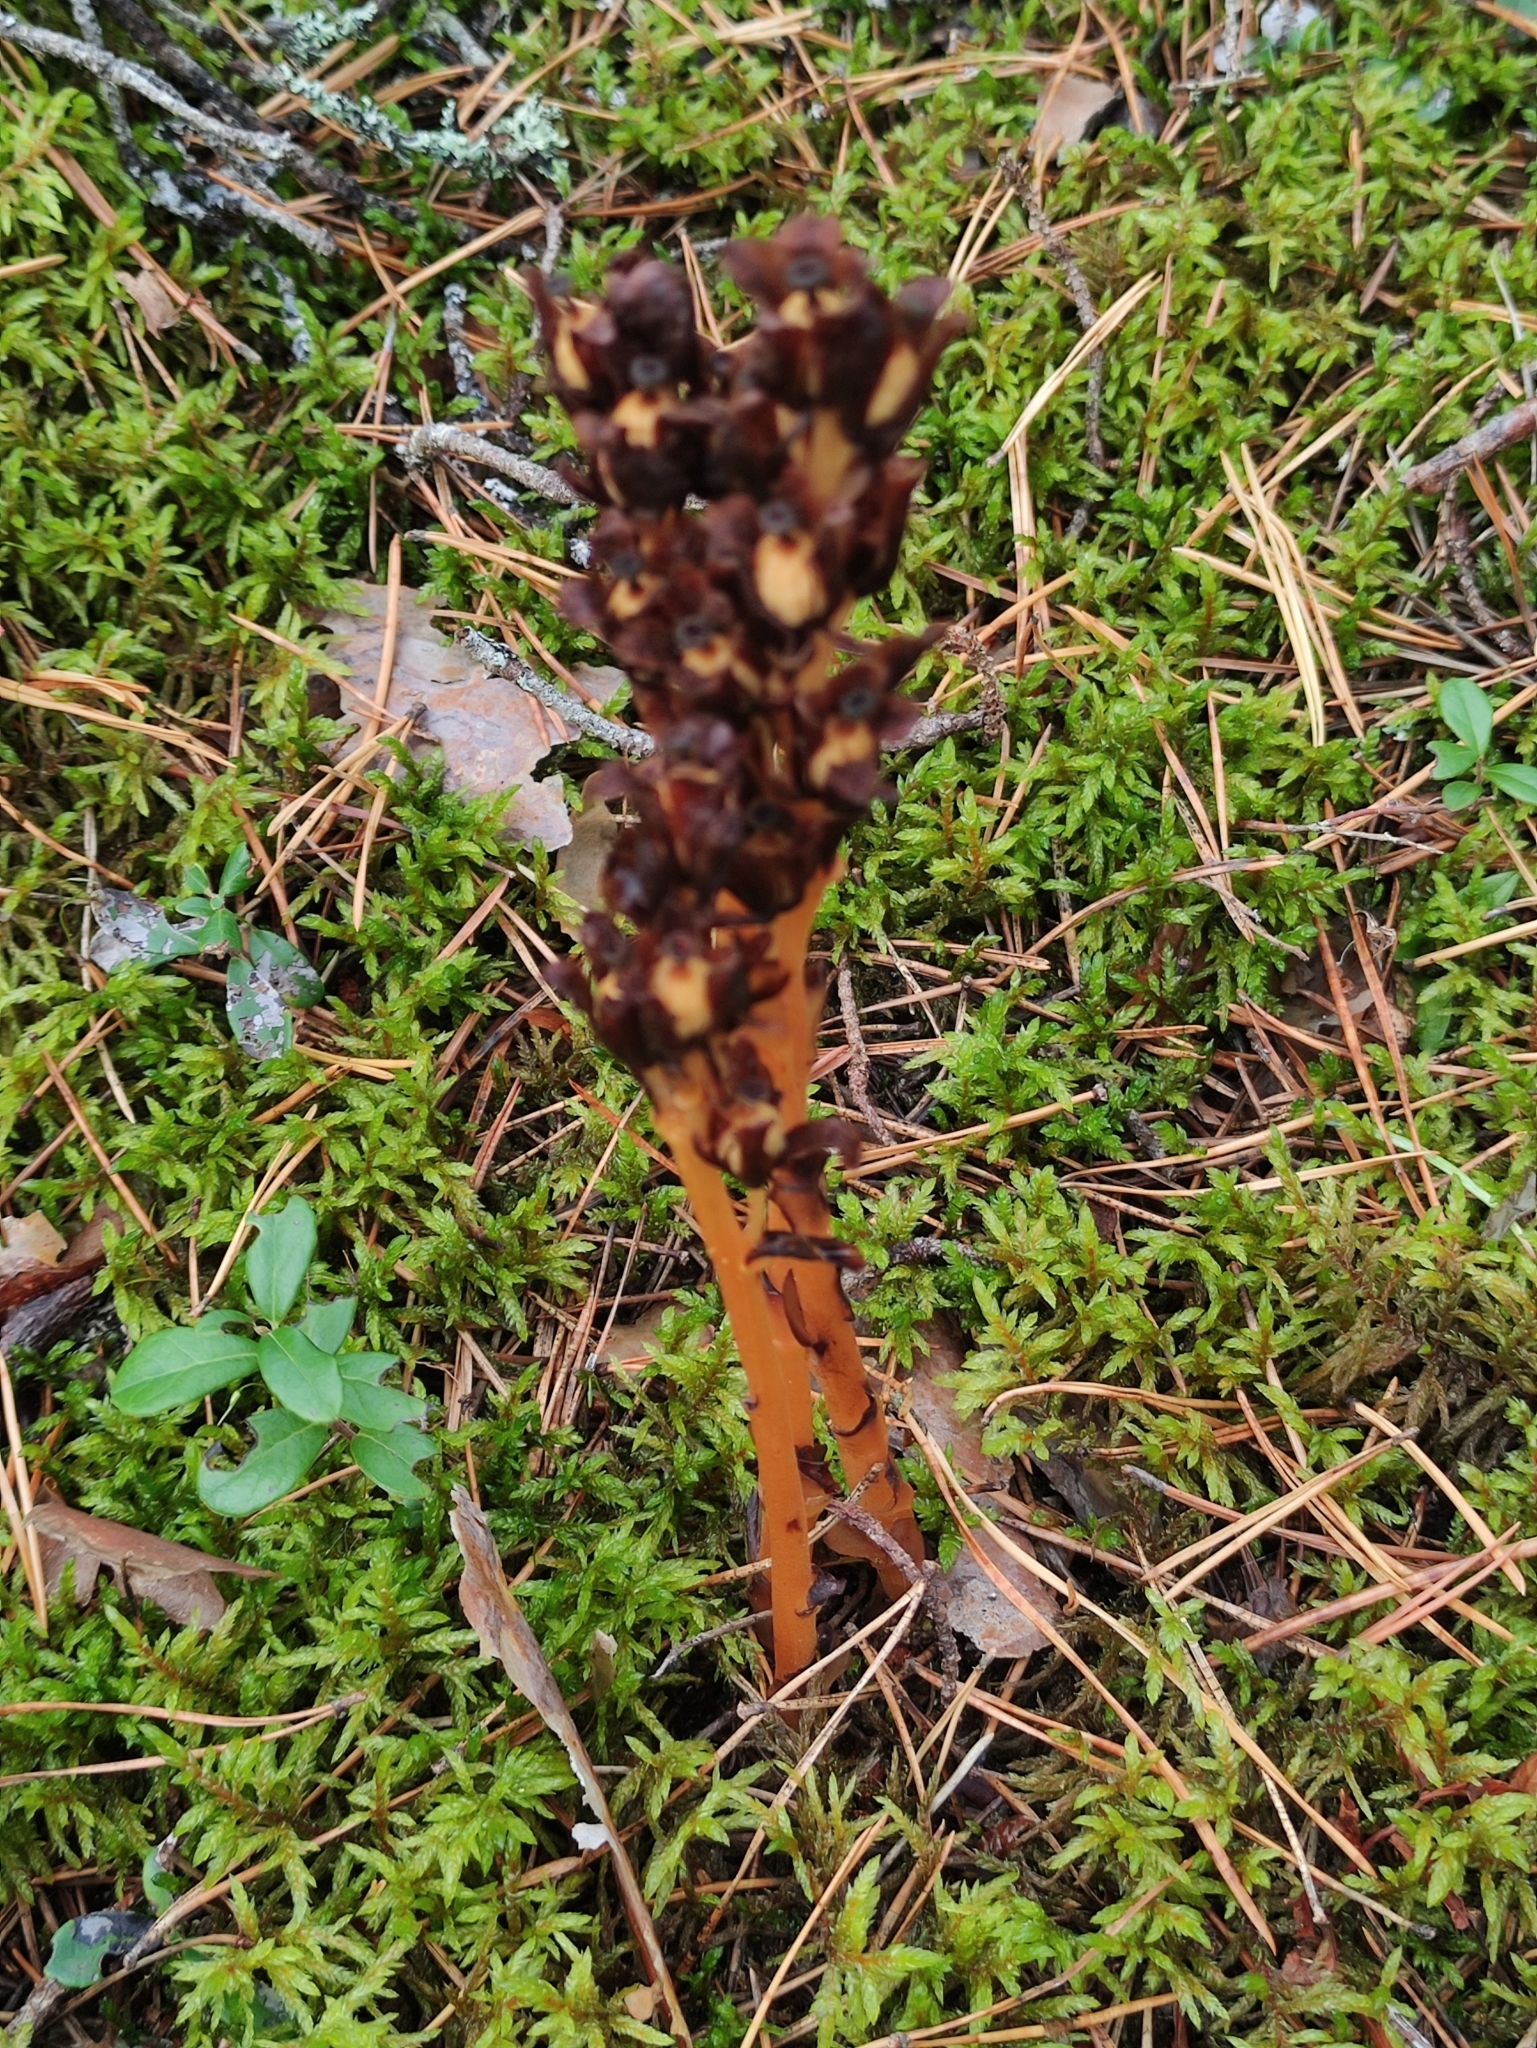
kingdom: Plantae
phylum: Tracheophyta
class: Magnoliopsida
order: Ericales
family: Ericaceae
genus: Hypopitys
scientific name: Hypopitys monotropa
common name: Yellow bird's-nest
